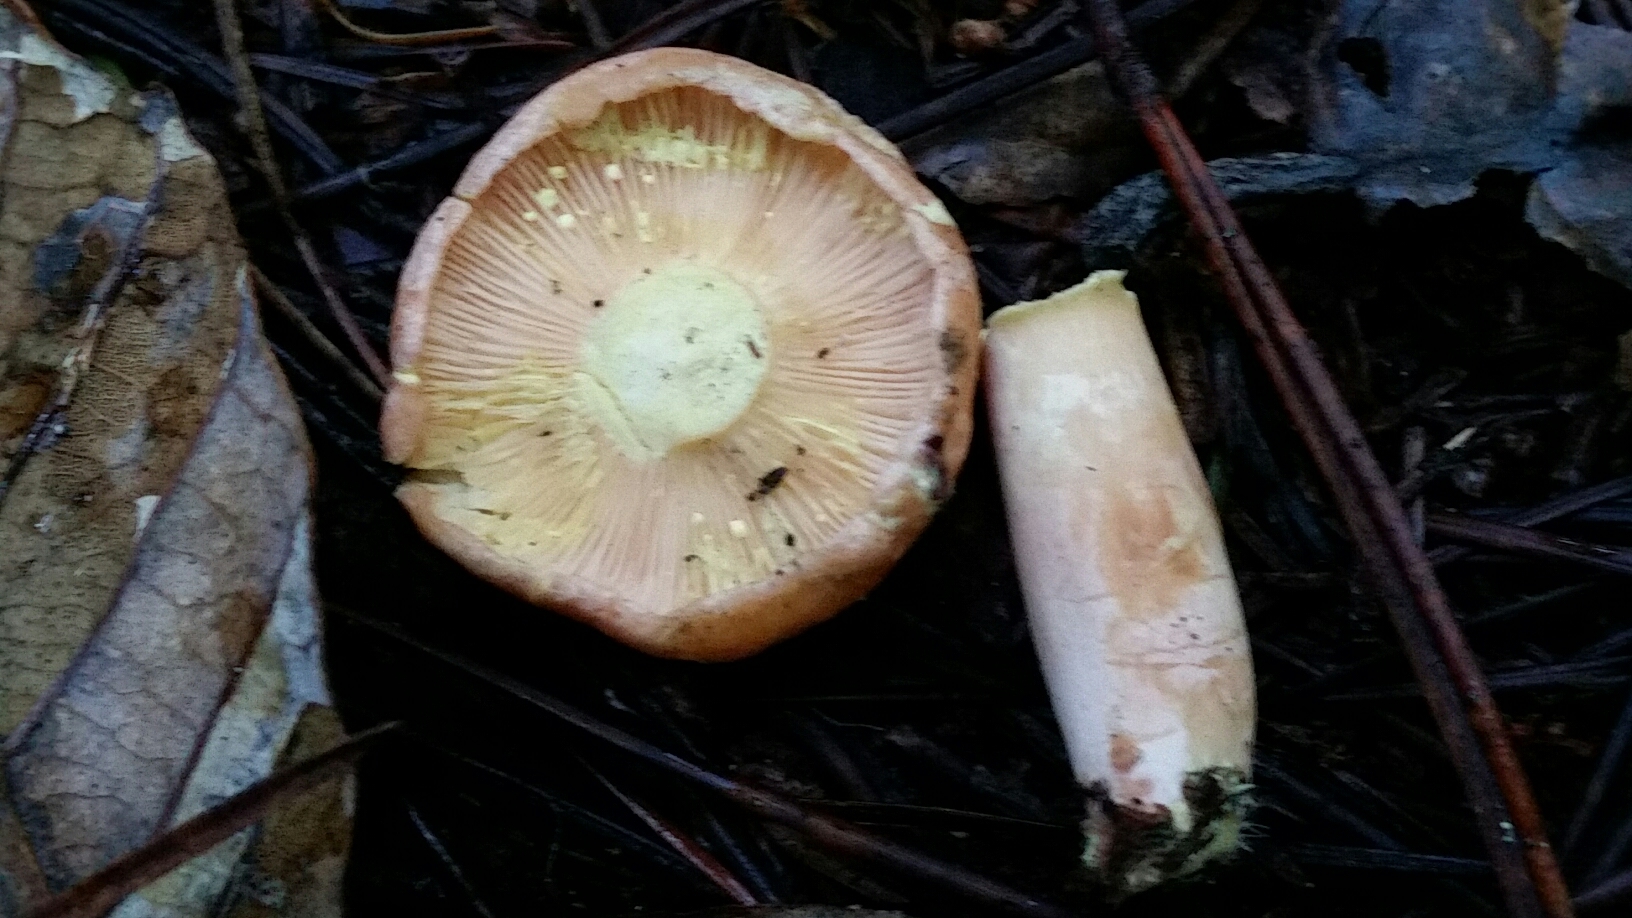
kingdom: Fungi
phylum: Basidiomycota
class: Agaricomycetes
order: Russulales
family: Russulaceae
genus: Lactarius
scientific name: Lactarius xanthogalactus
